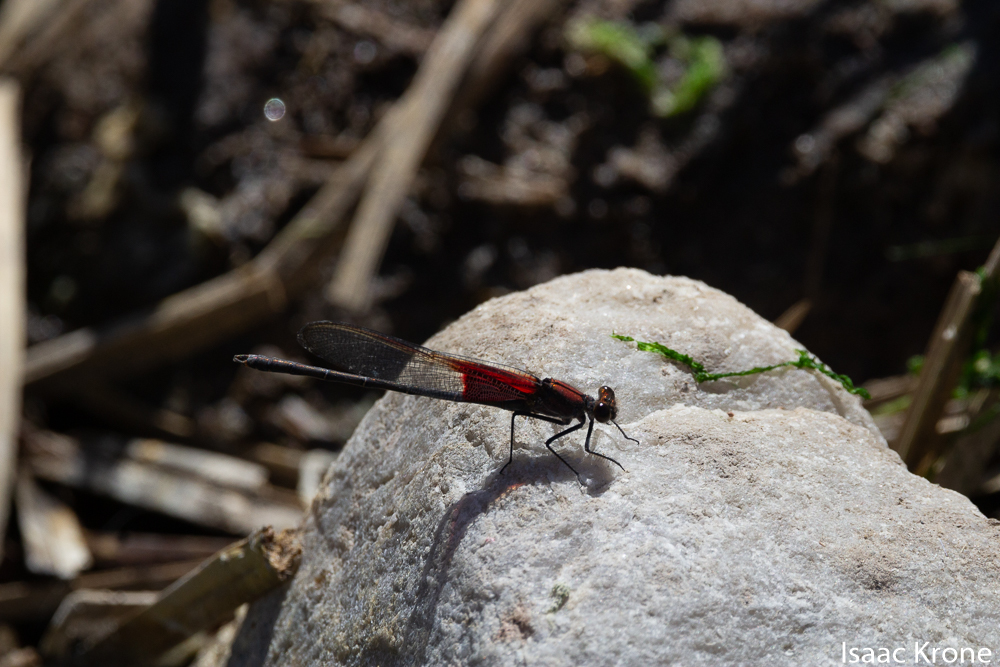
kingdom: Animalia
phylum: Arthropoda
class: Insecta
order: Odonata
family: Calopterygidae
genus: Hetaerina
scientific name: Hetaerina americana
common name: American rubyspot
